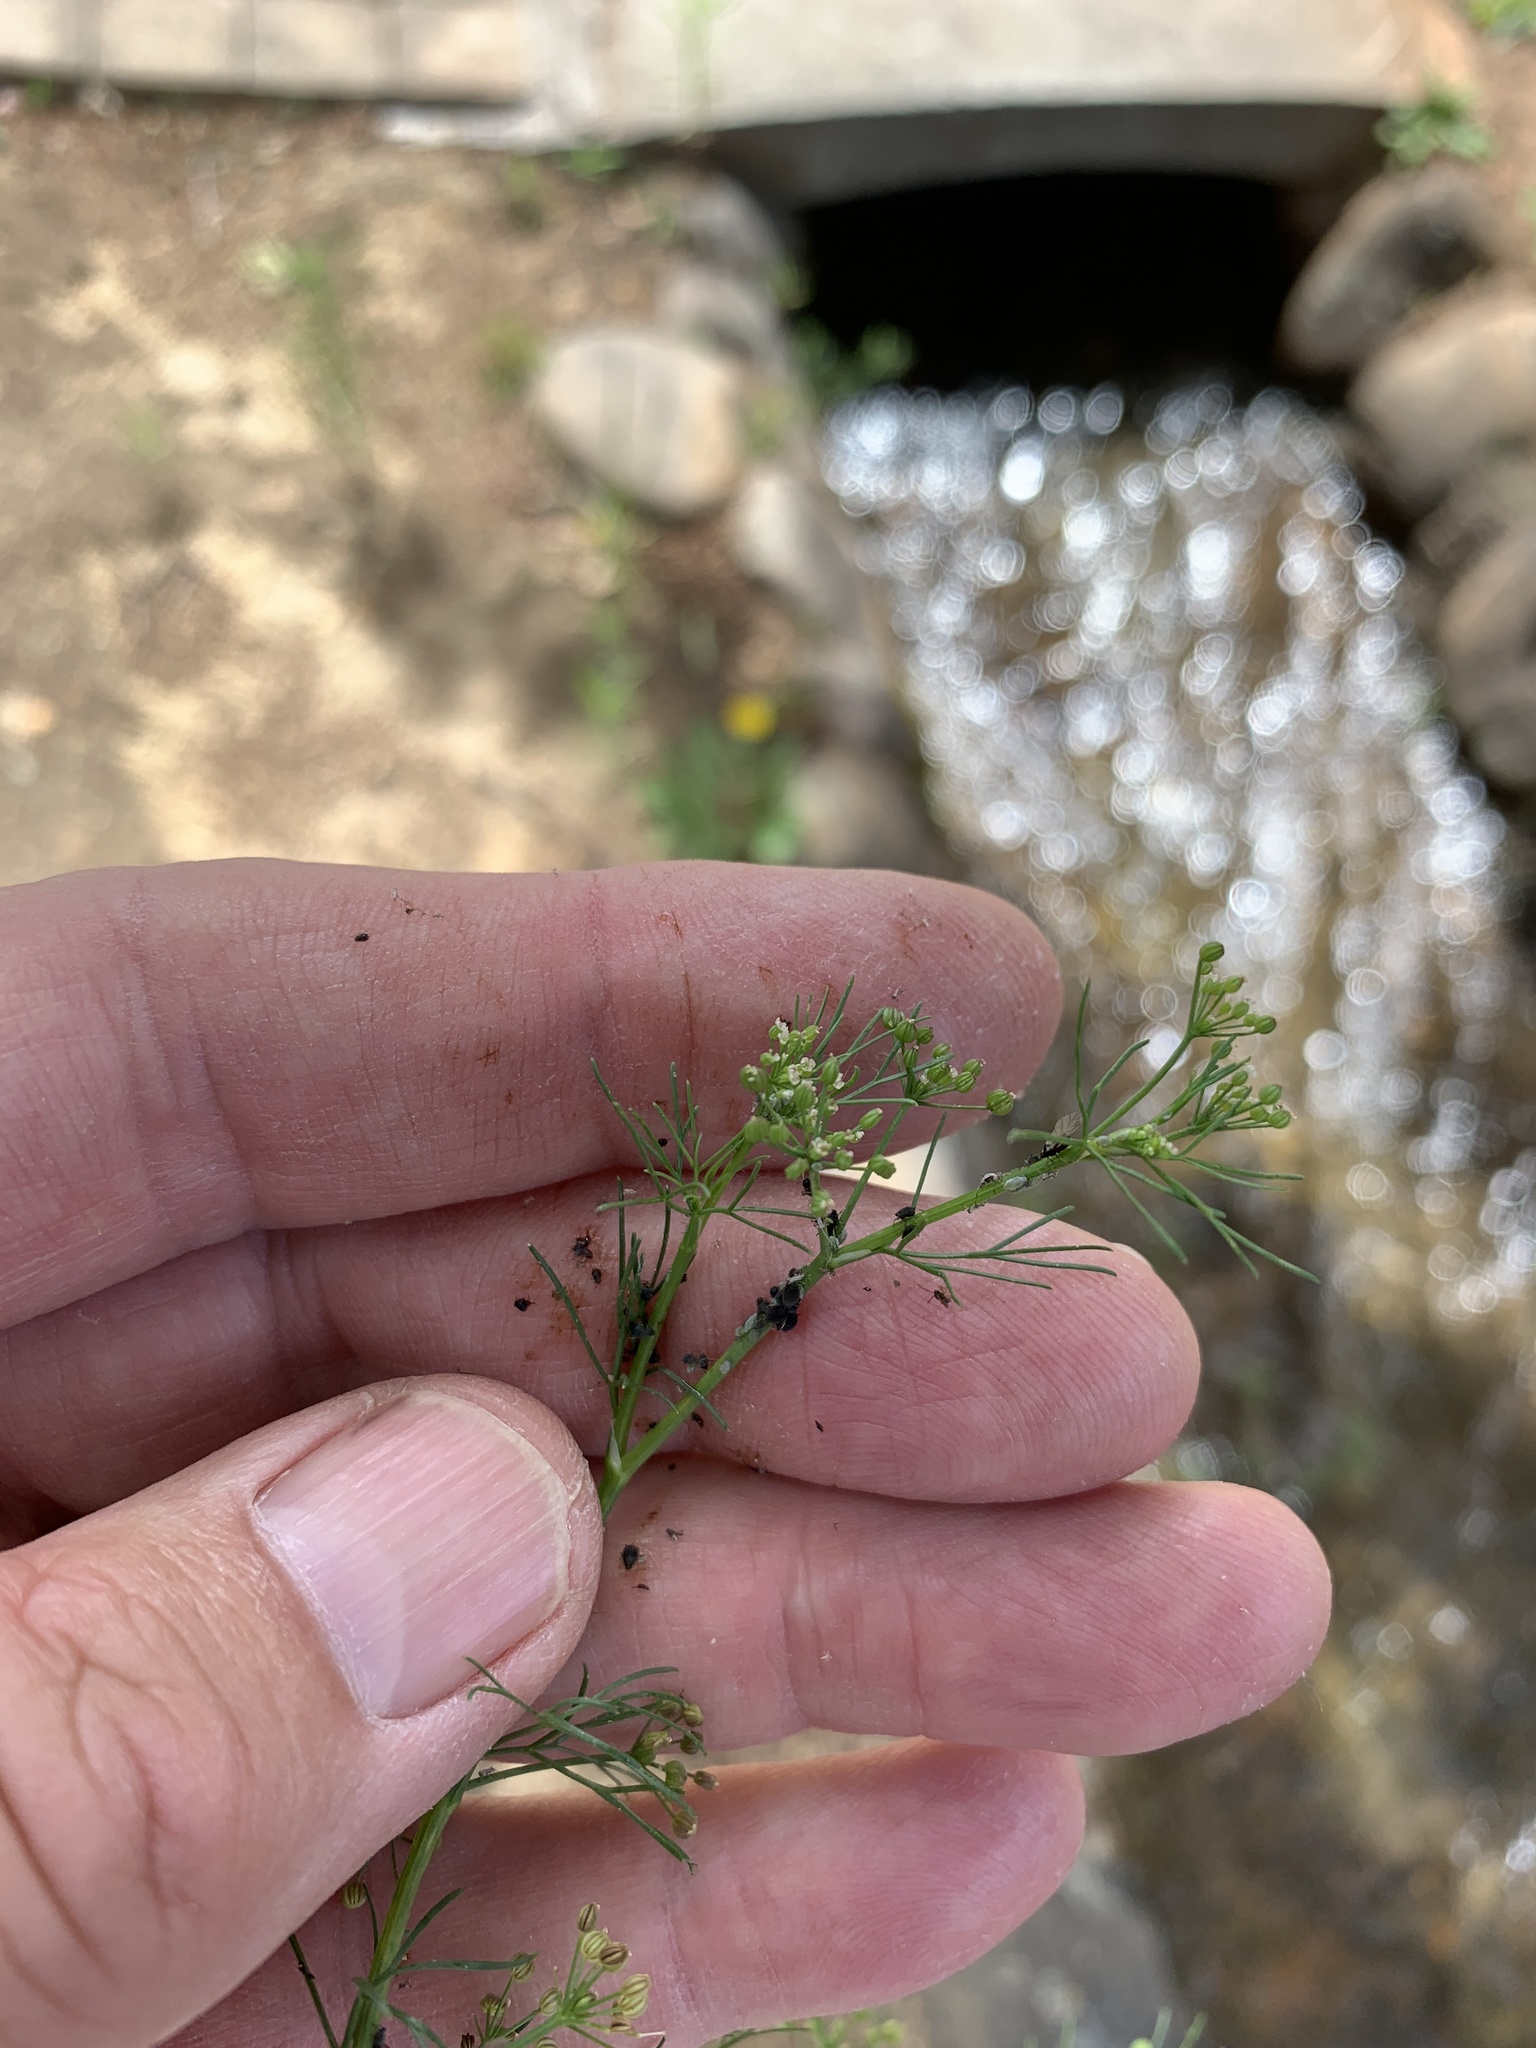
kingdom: Plantae
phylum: Tracheophyta
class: Magnoliopsida
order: Apiales
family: Apiaceae
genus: Cyclospermum
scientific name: Cyclospermum leptophyllum
